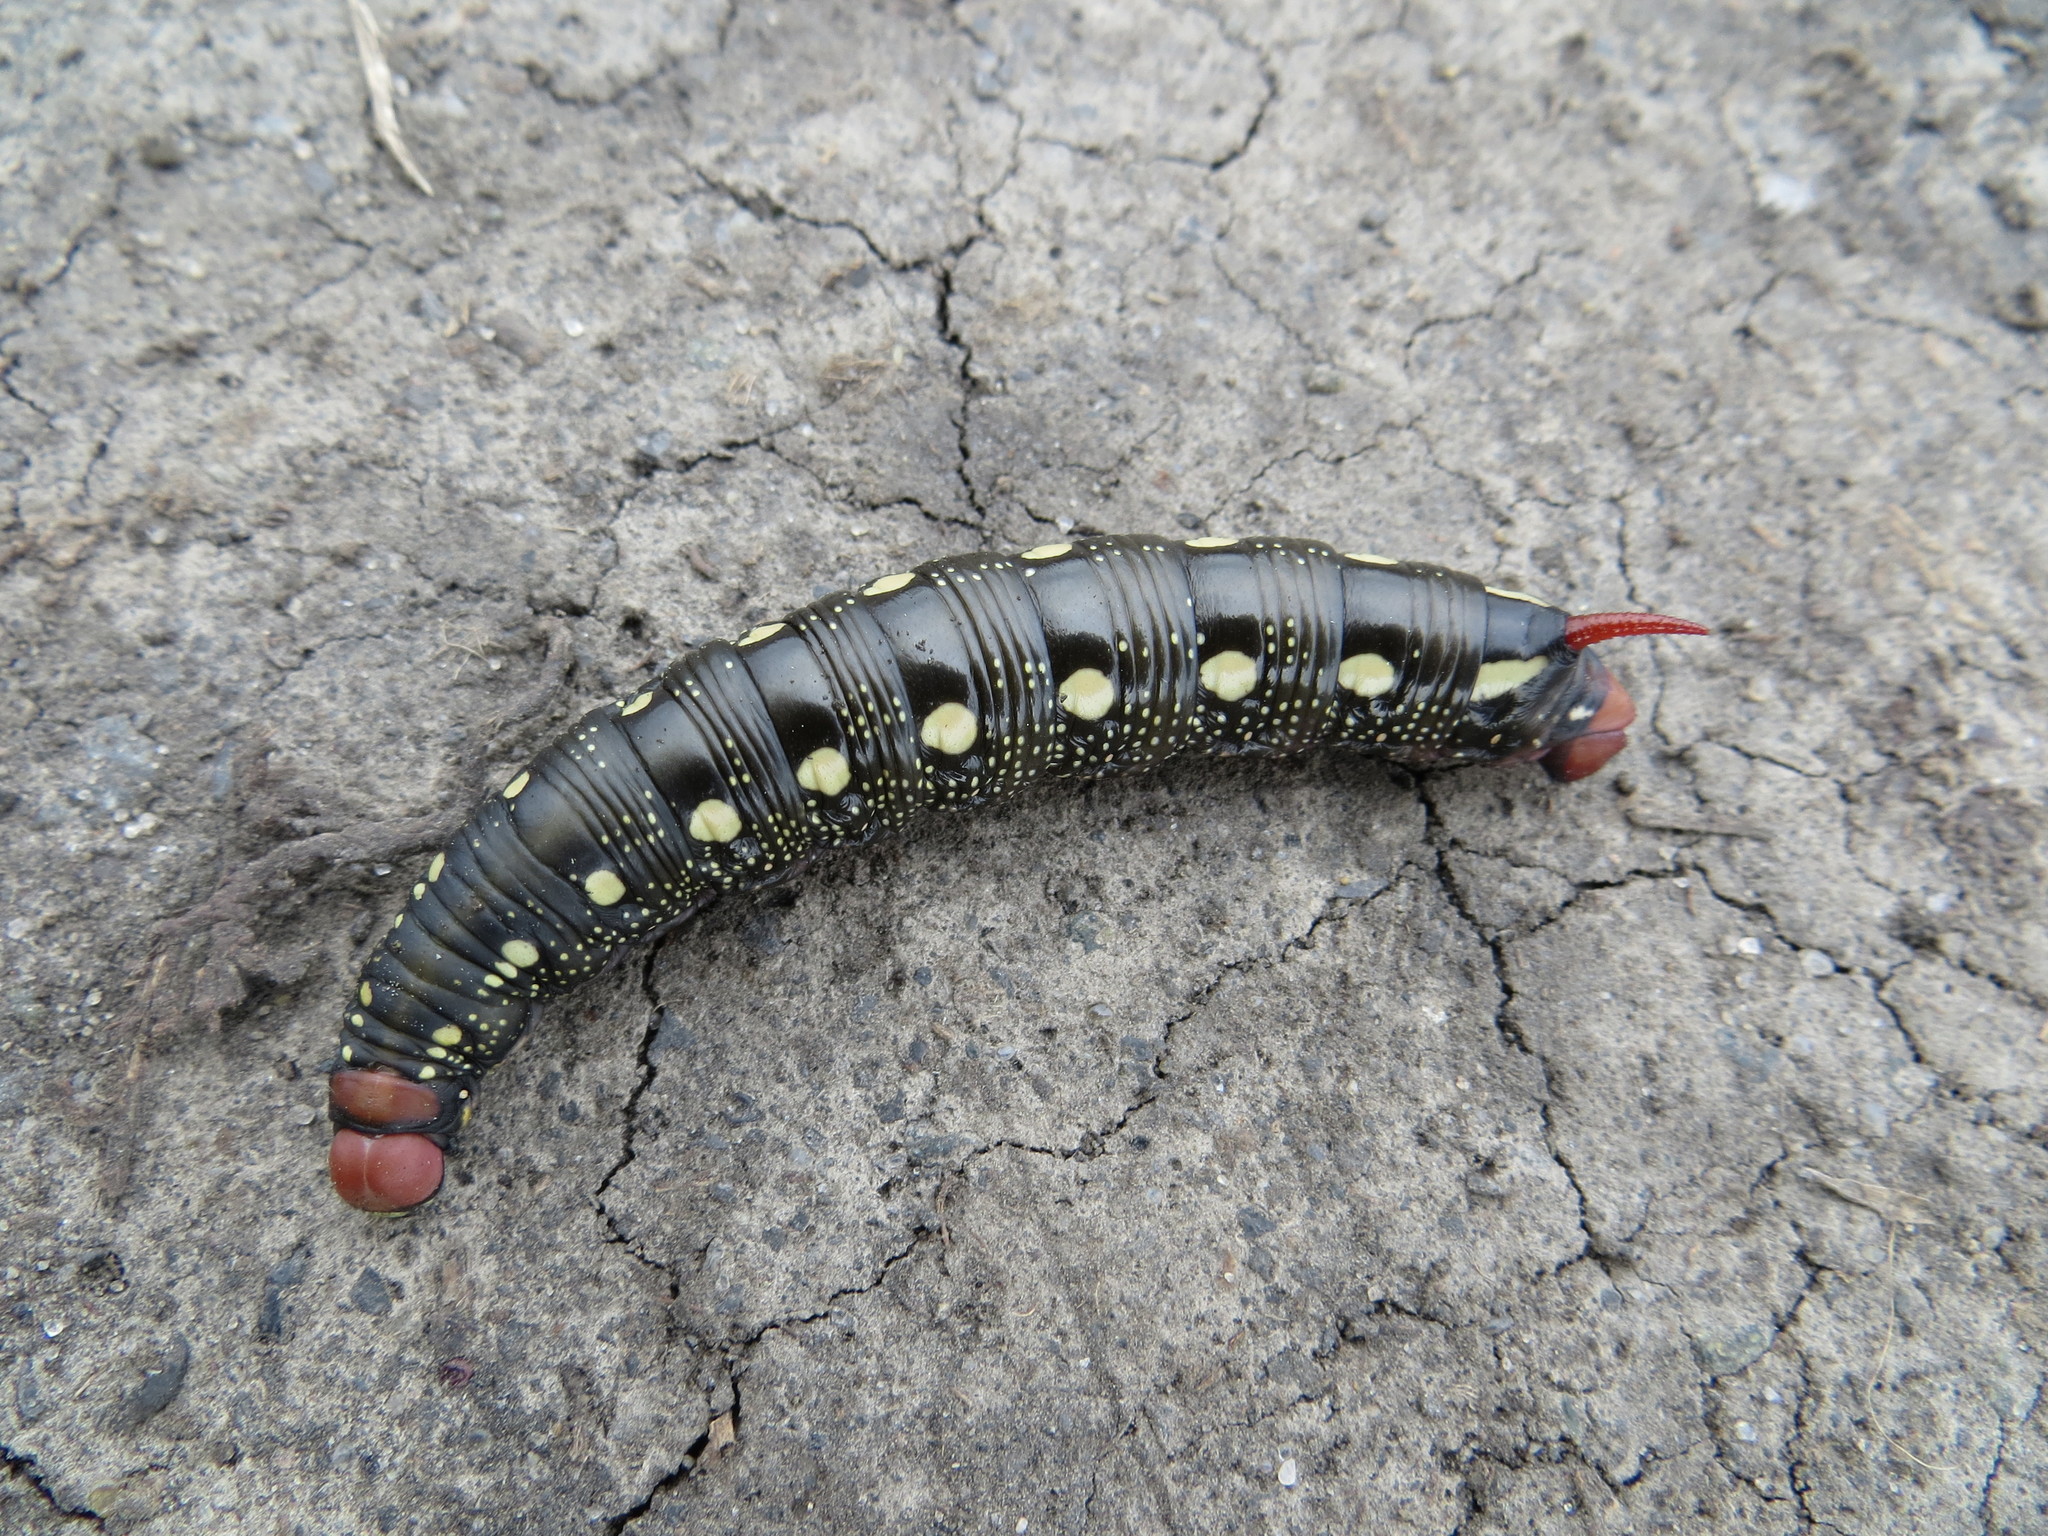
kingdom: Animalia
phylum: Arthropoda
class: Insecta
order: Lepidoptera
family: Sphingidae
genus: Hyles
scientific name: Hyles gallii
